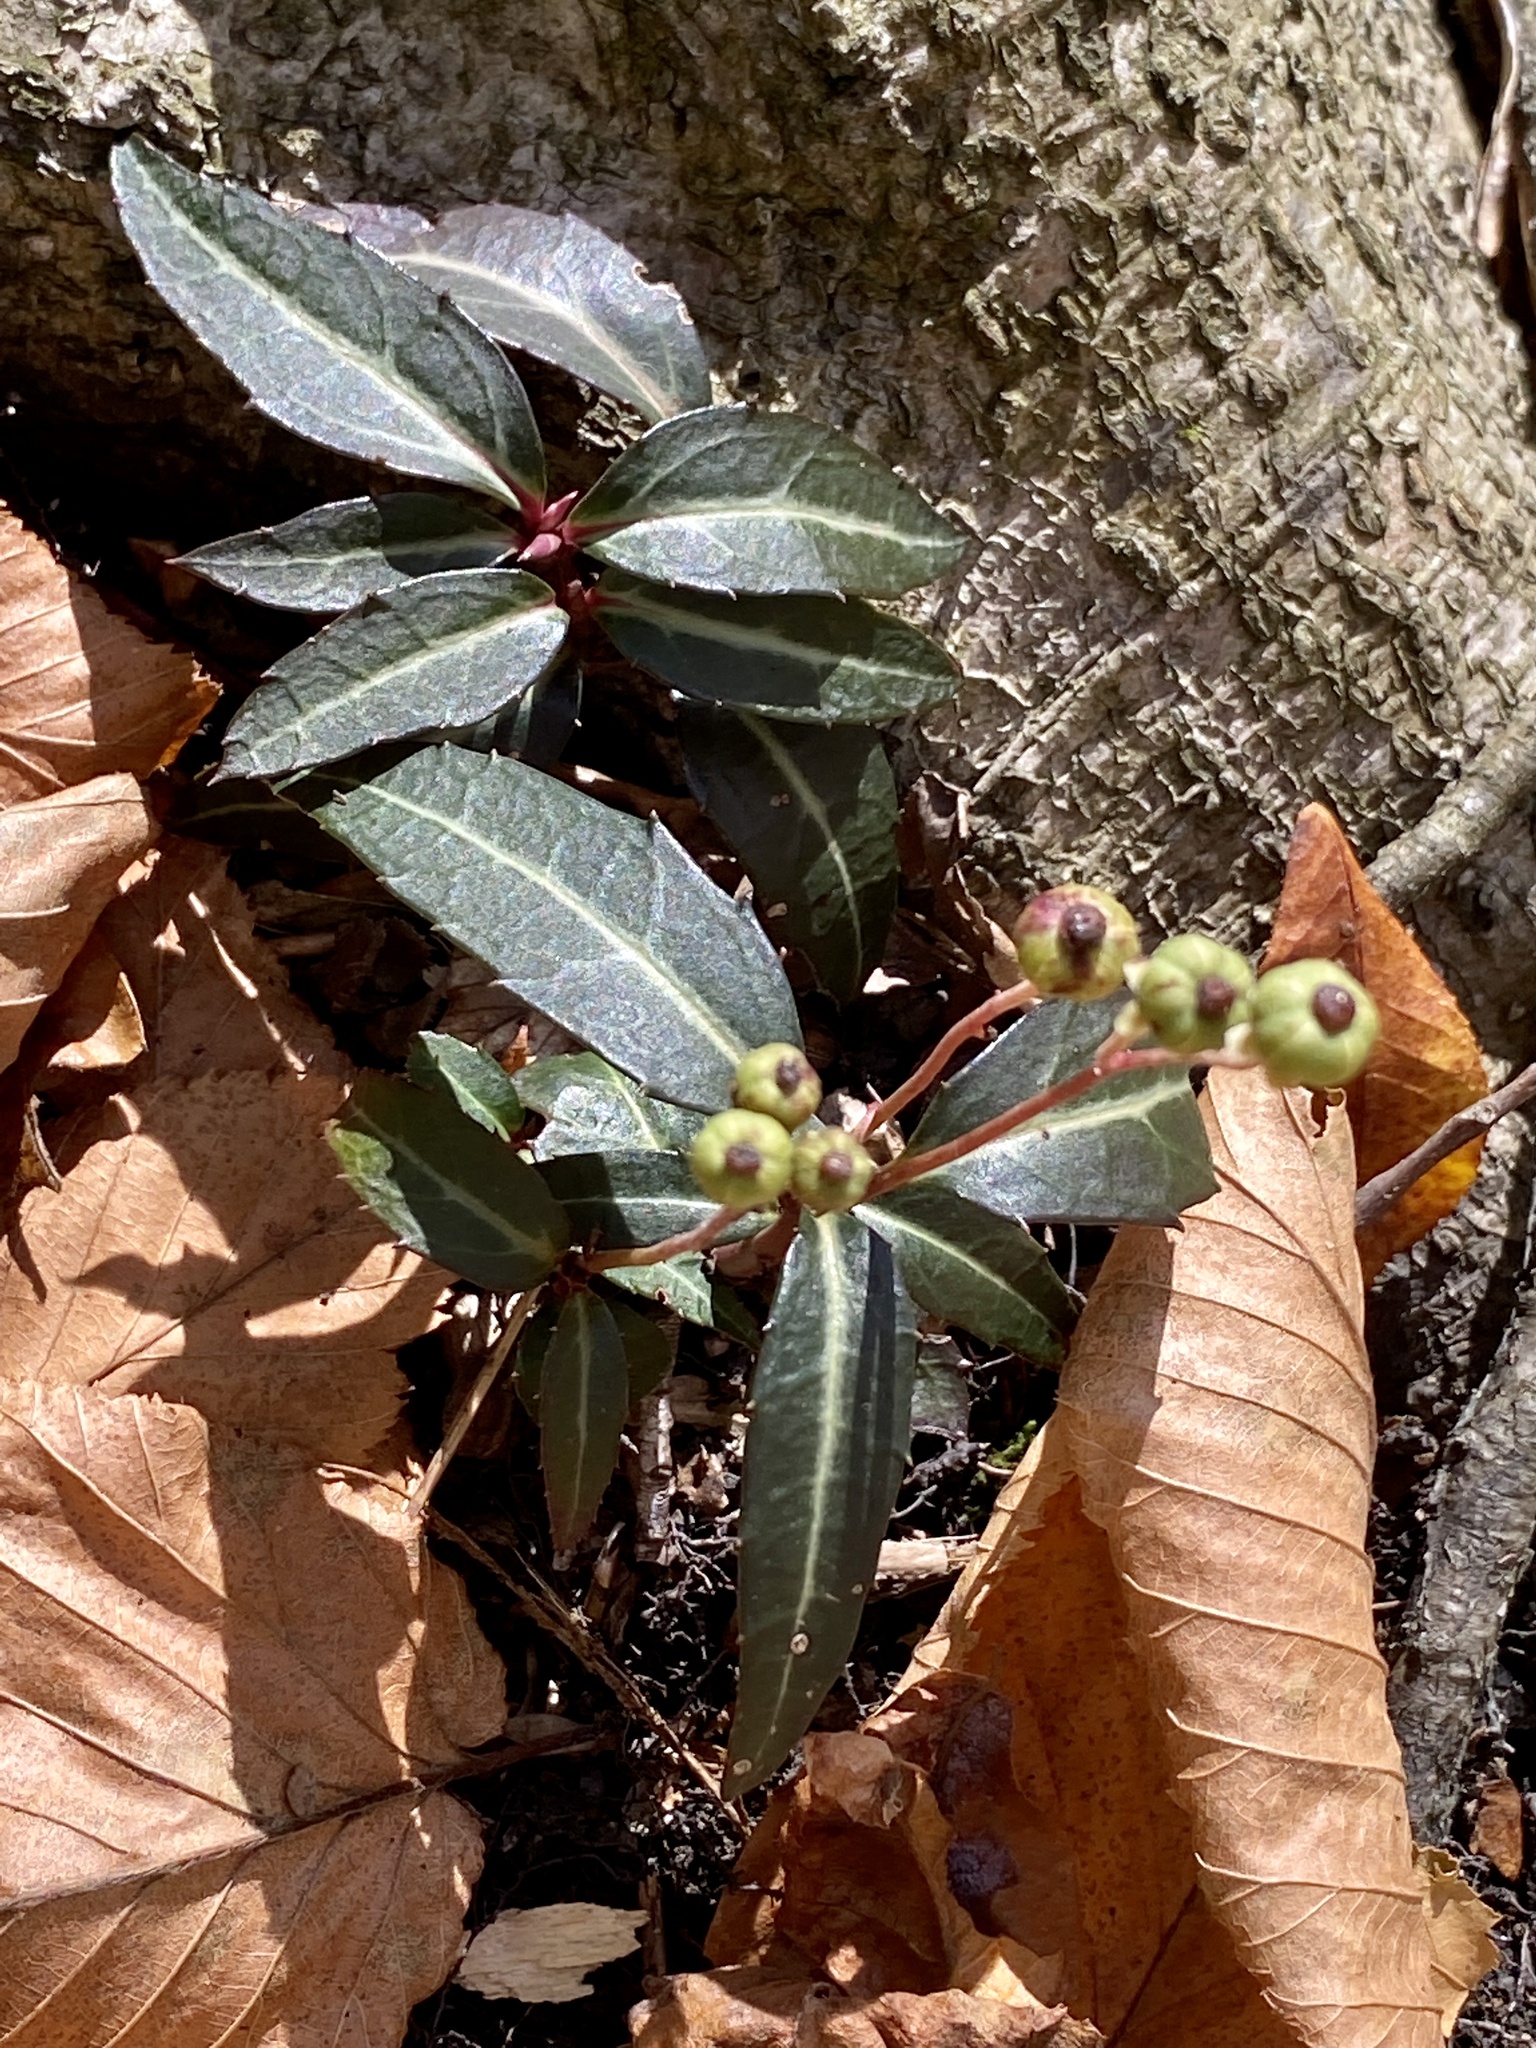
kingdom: Plantae
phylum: Tracheophyta
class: Magnoliopsida
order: Ericales
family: Ericaceae
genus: Chimaphila
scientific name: Chimaphila maculata
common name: Spotted pipsissewa
